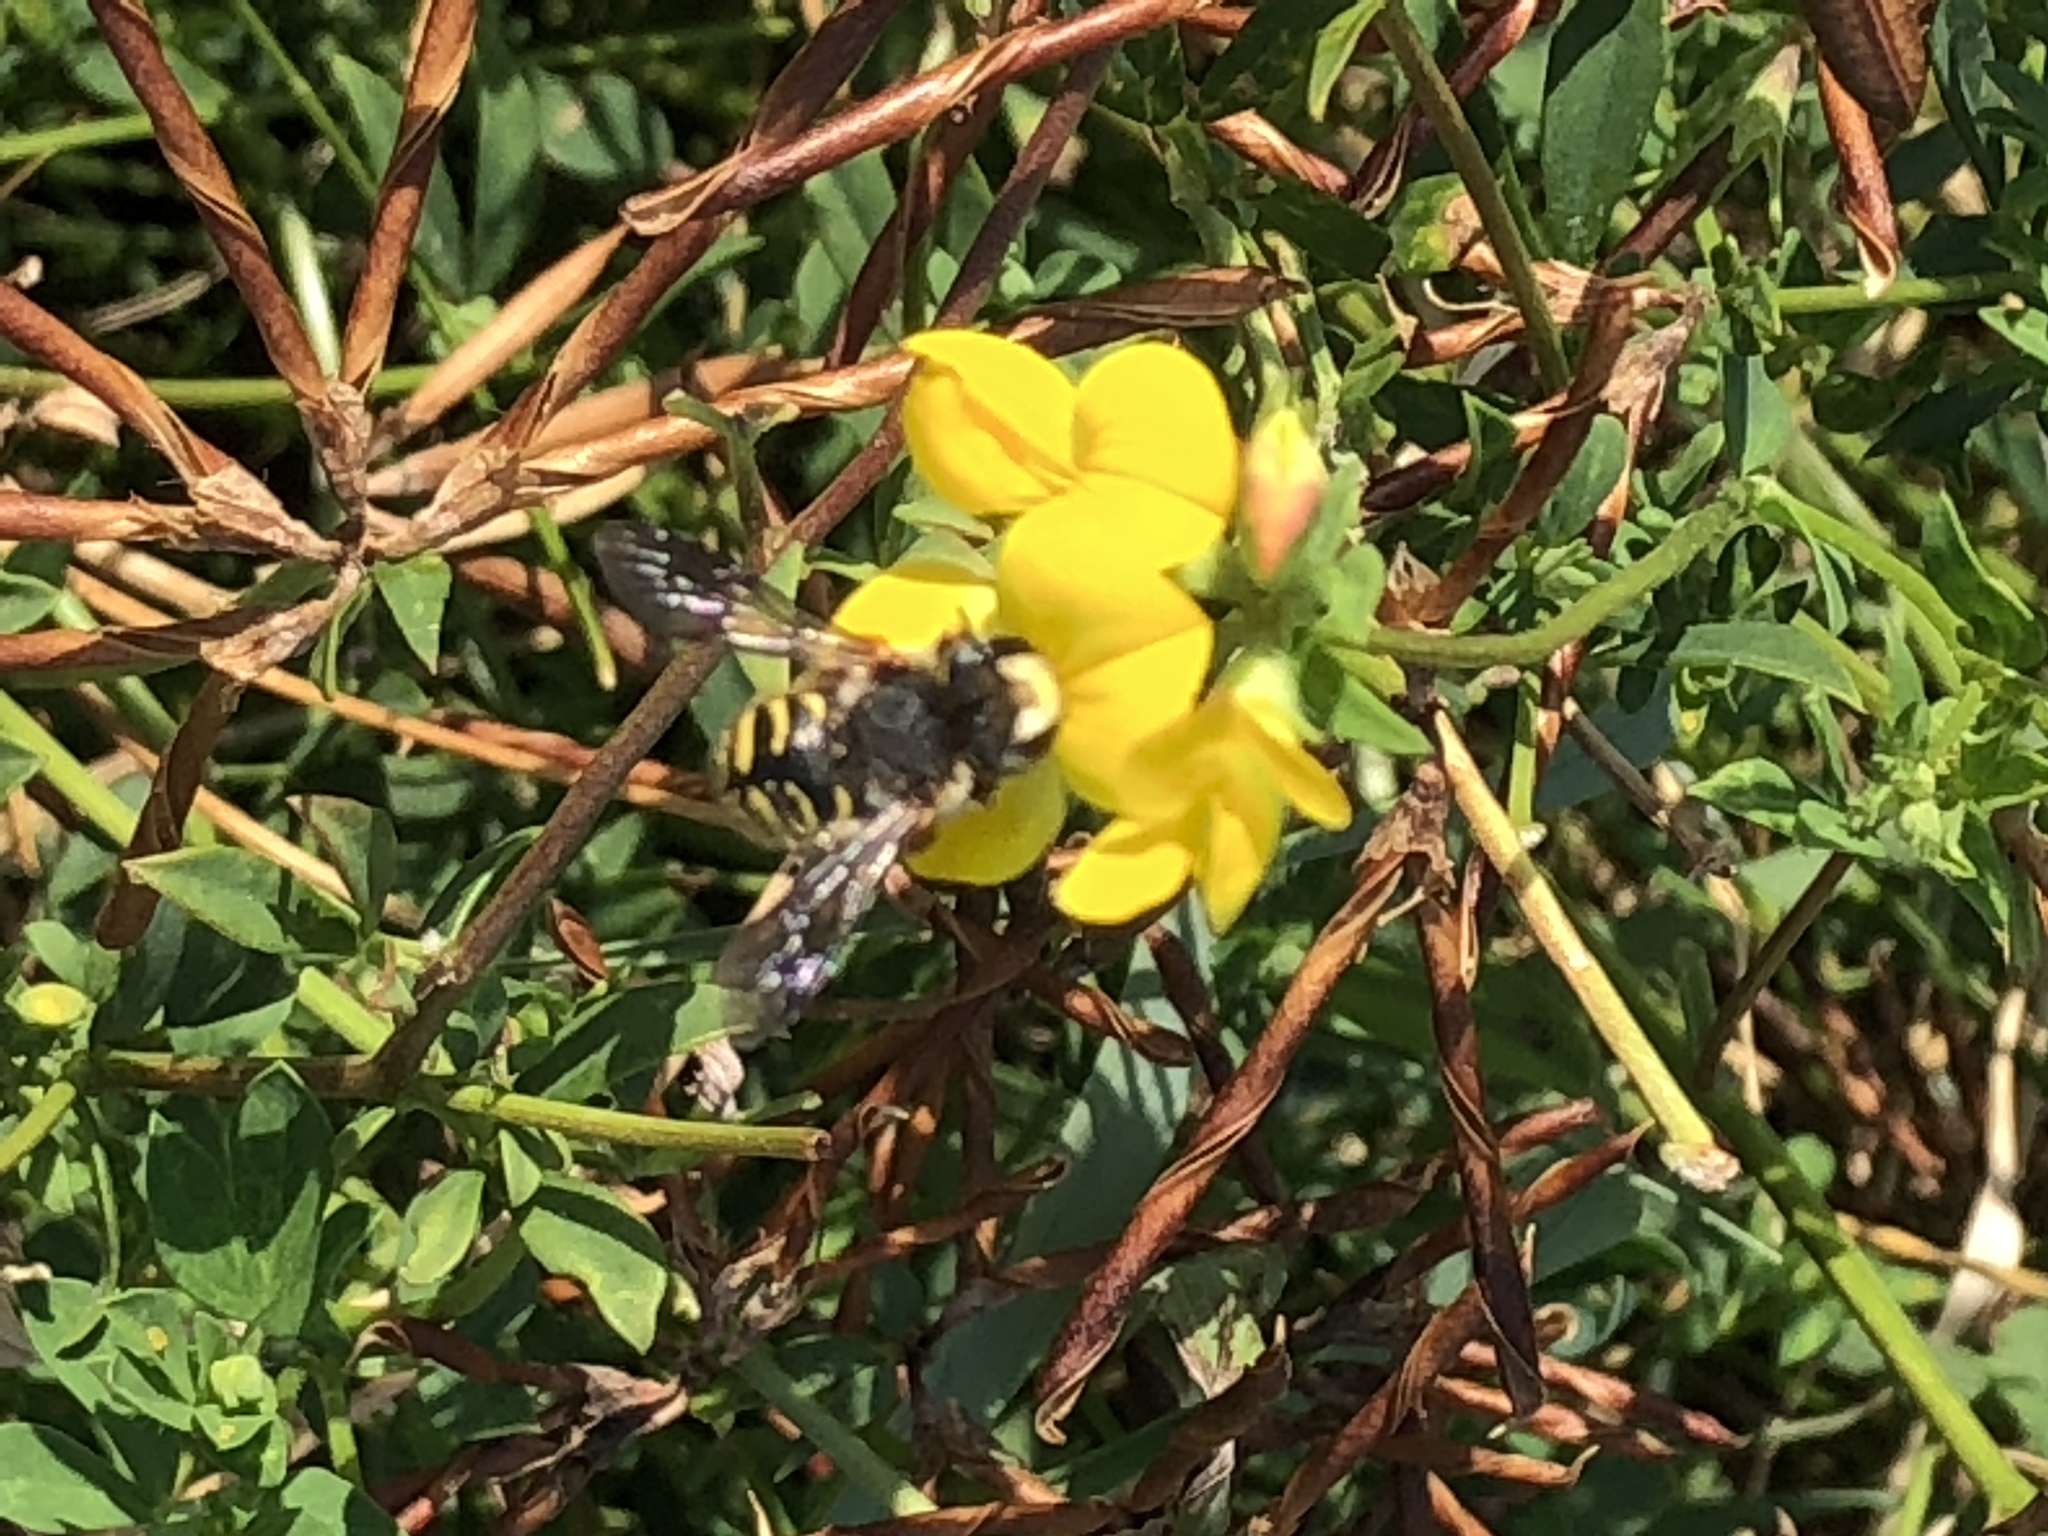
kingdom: Plantae
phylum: Tracheophyta
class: Magnoliopsida
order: Fabales
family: Fabaceae
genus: Lotus
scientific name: Lotus corniculatus
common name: Common bird's-foot-trefoil
